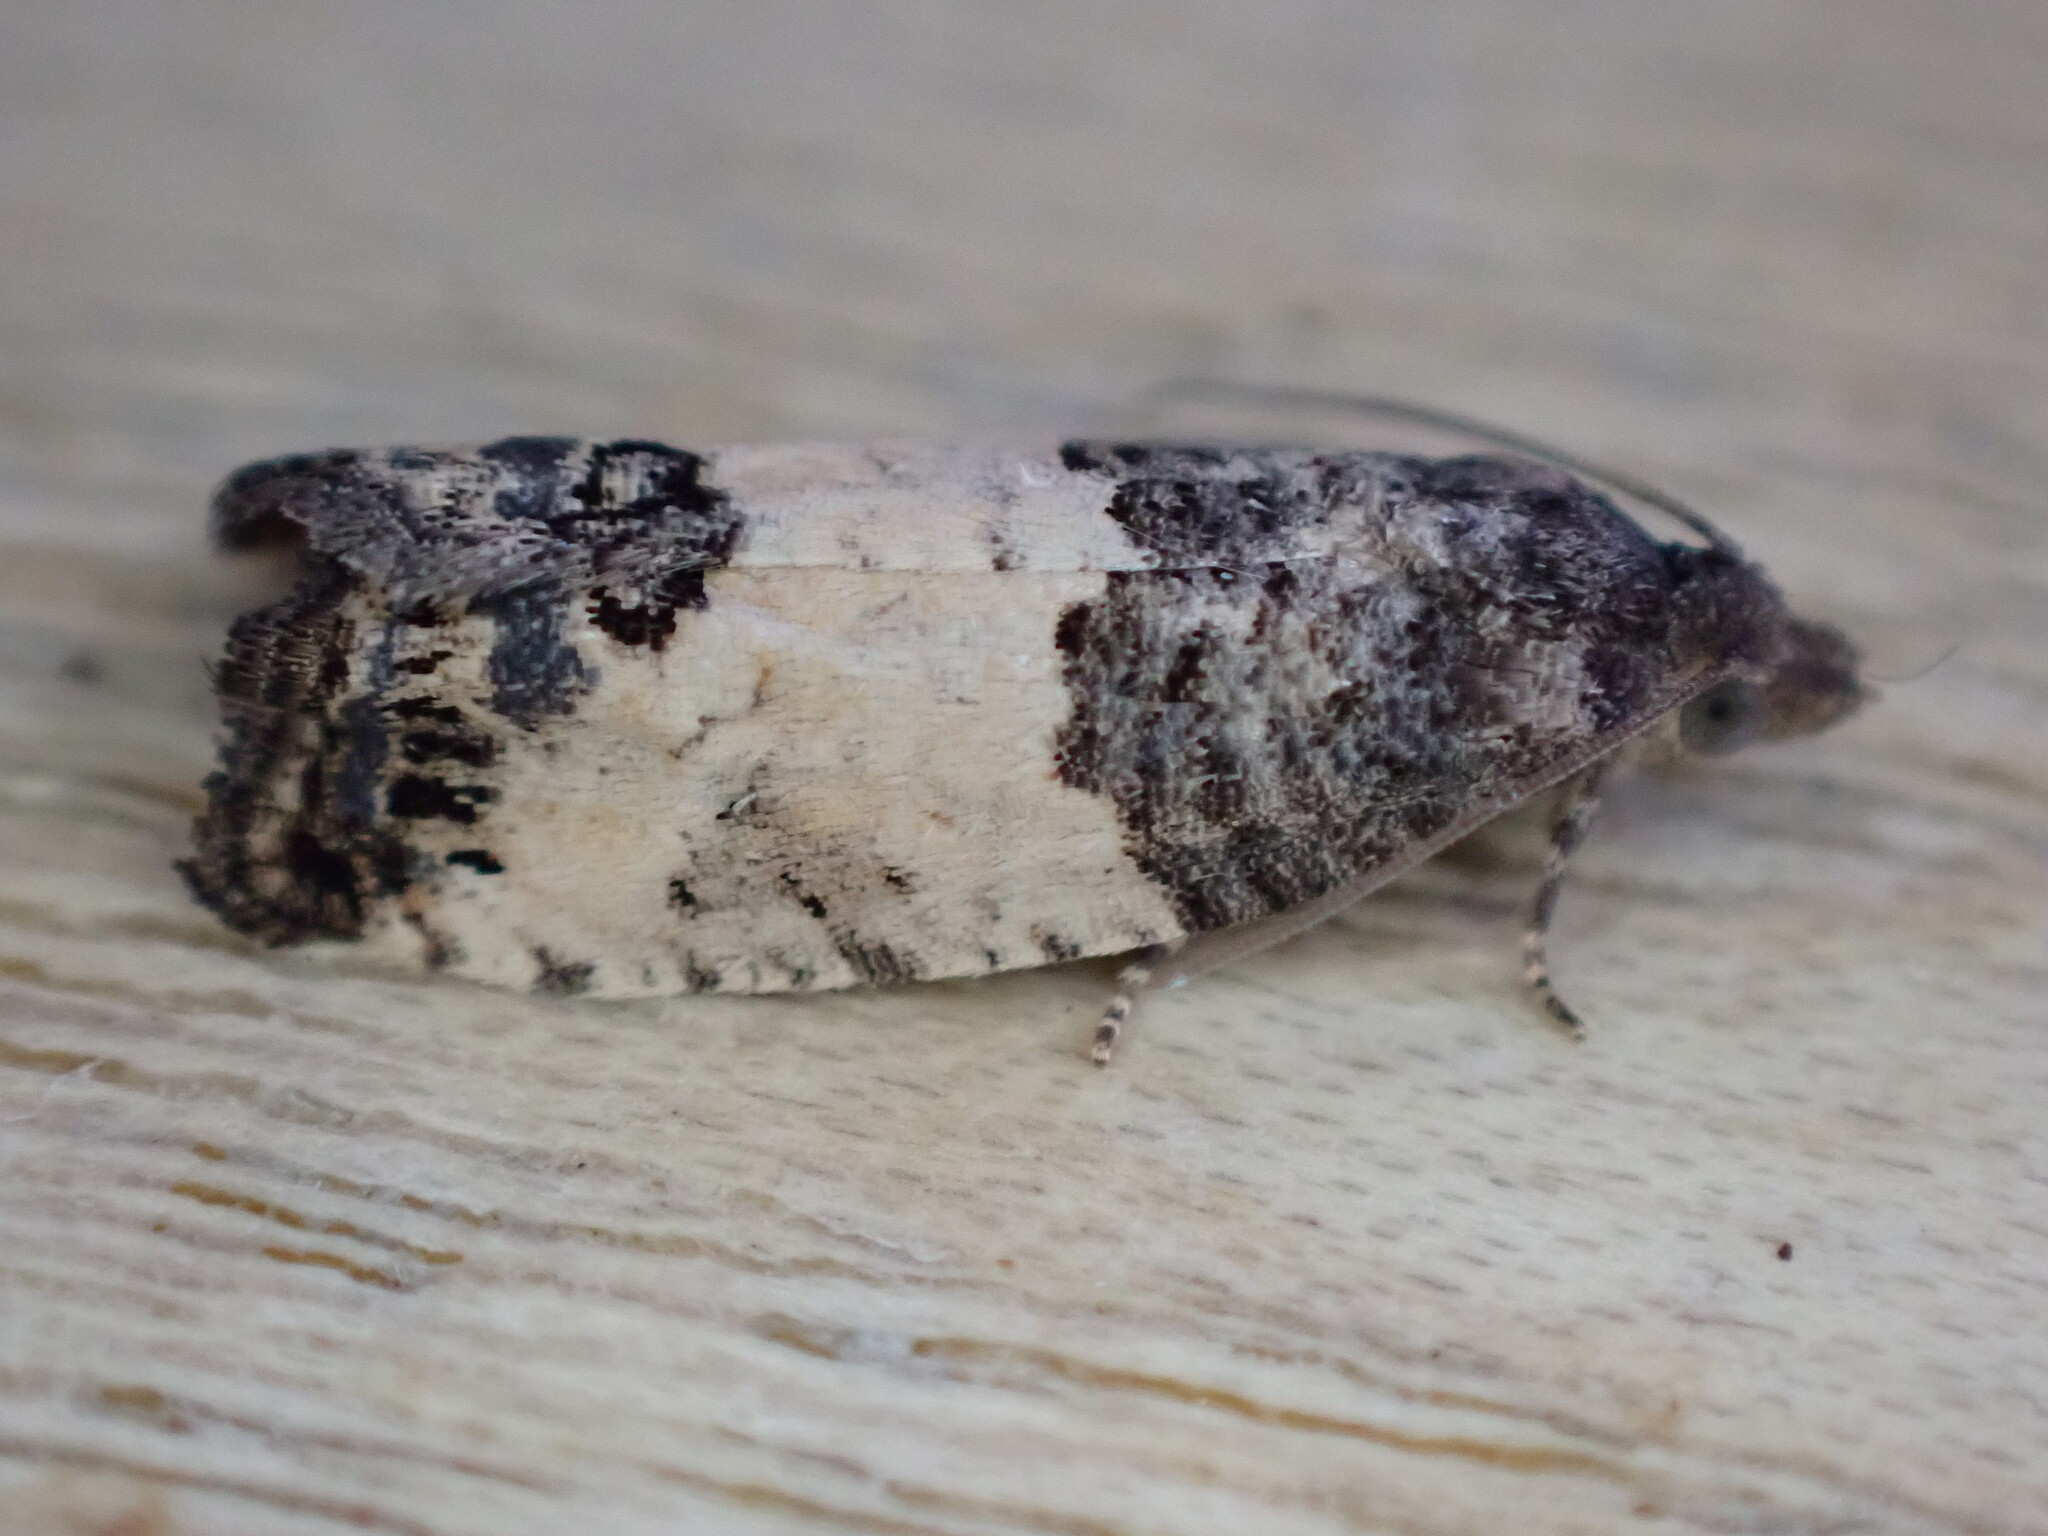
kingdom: Animalia
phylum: Arthropoda
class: Insecta
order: Lepidoptera
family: Tortricidae
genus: Spilonota
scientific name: Spilonota ocellana
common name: Bud moth
